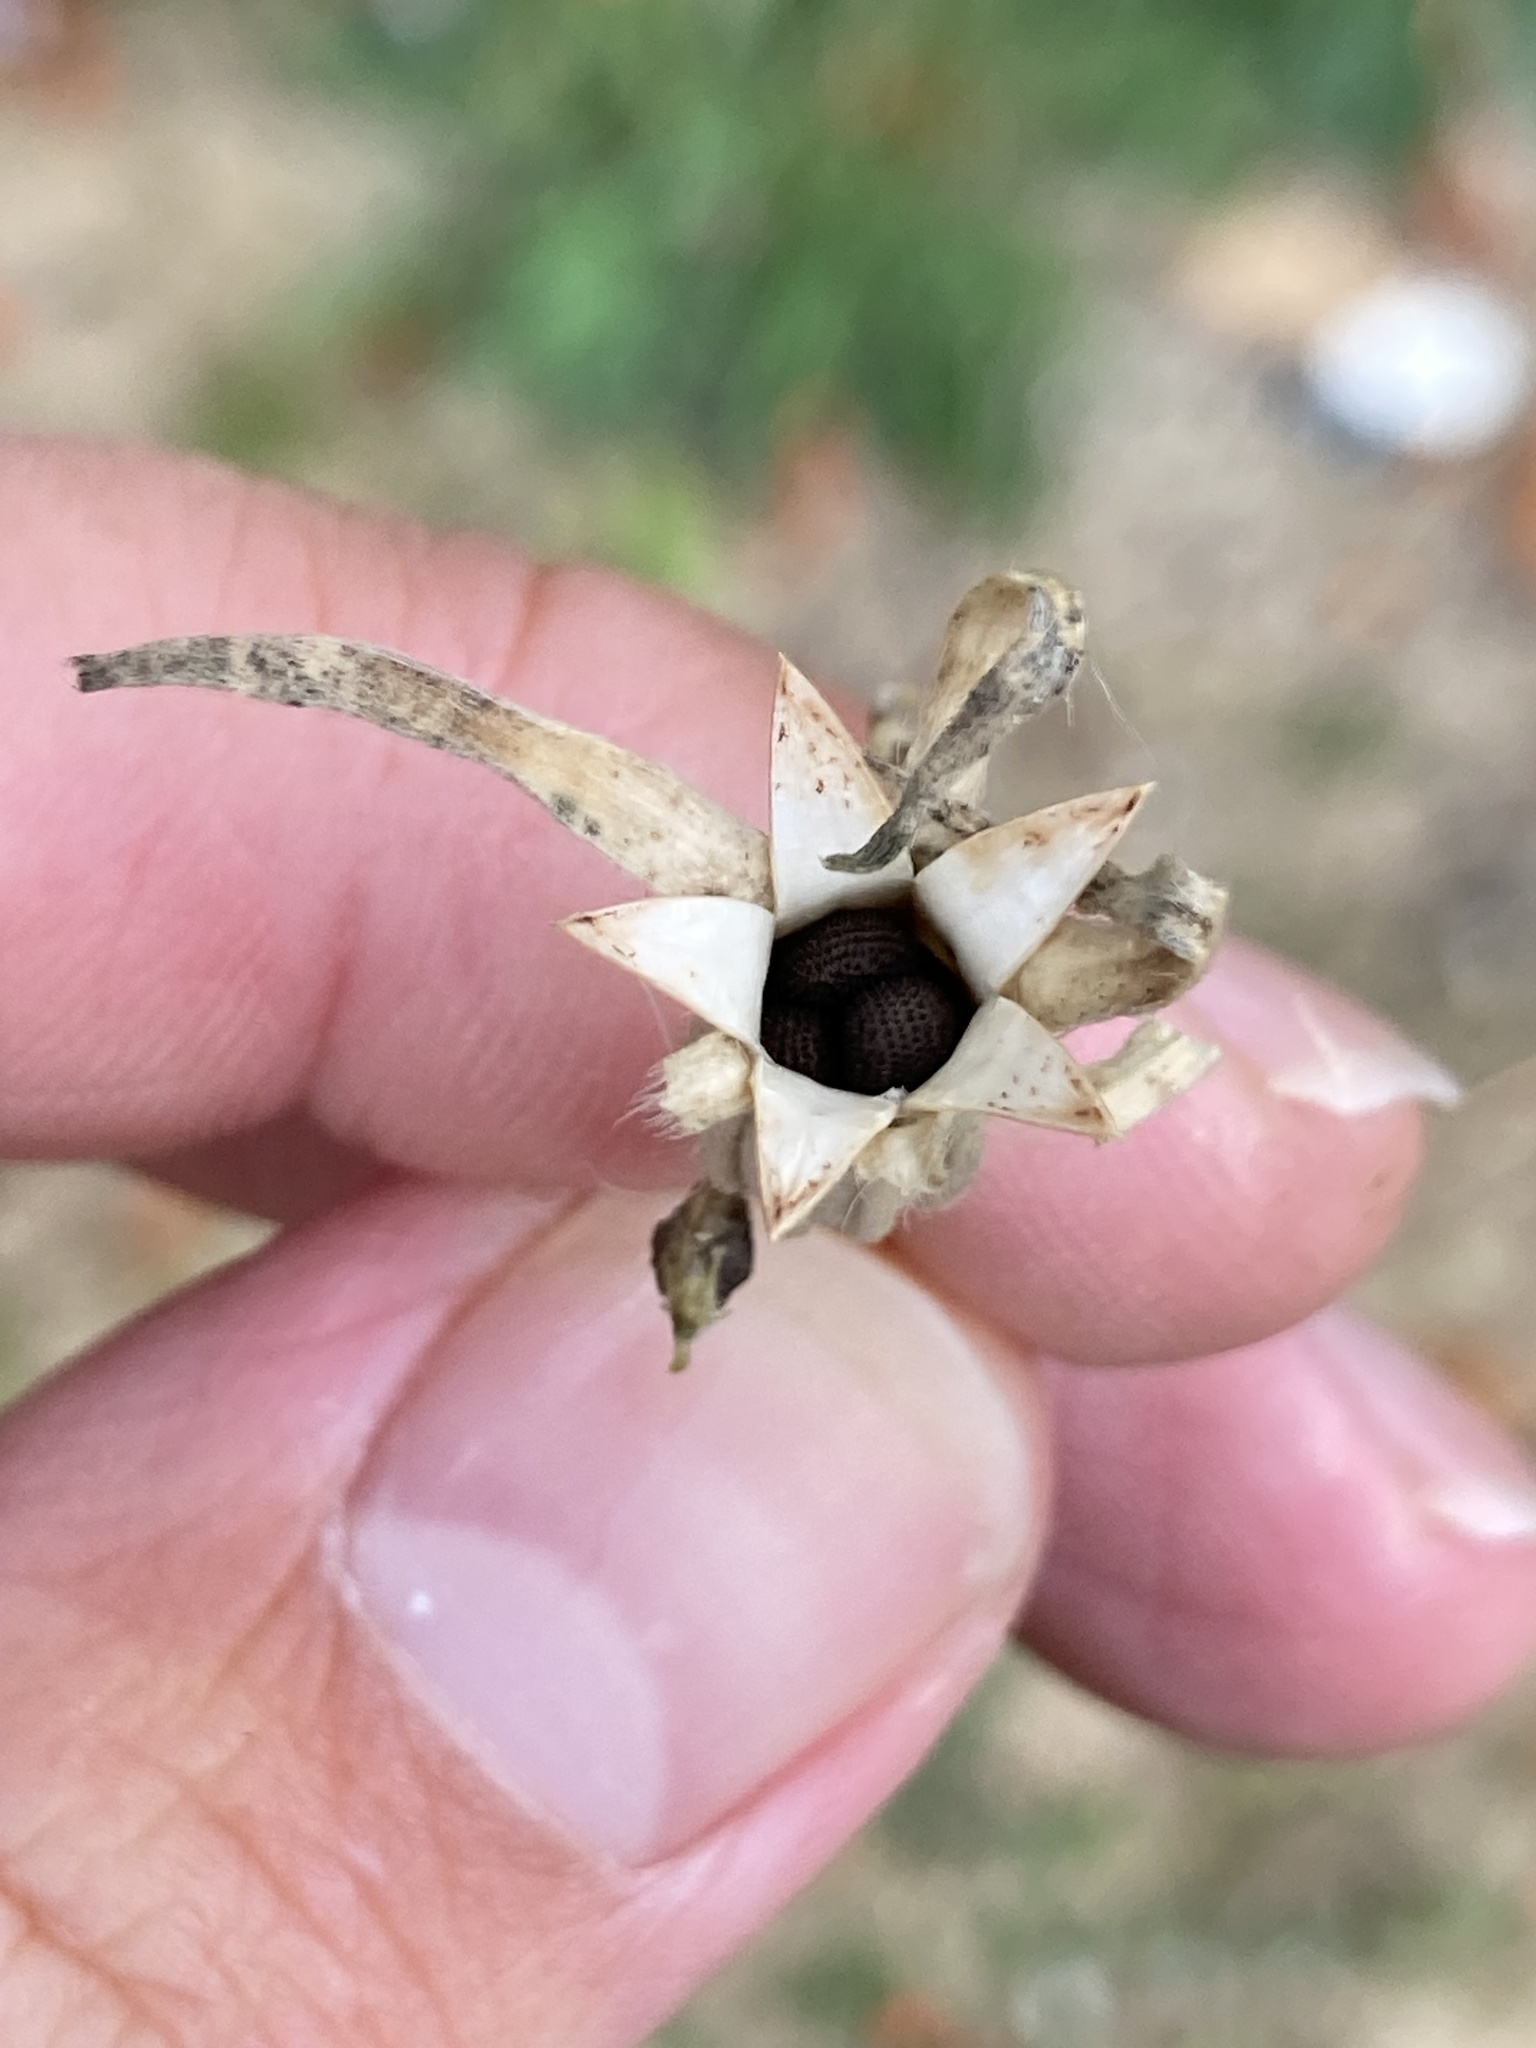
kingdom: Plantae
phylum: Tracheophyta
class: Magnoliopsida
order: Caryophyllales
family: Caryophyllaceae
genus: Agrostemma
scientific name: Agrostemma githago
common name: Common corncockle
